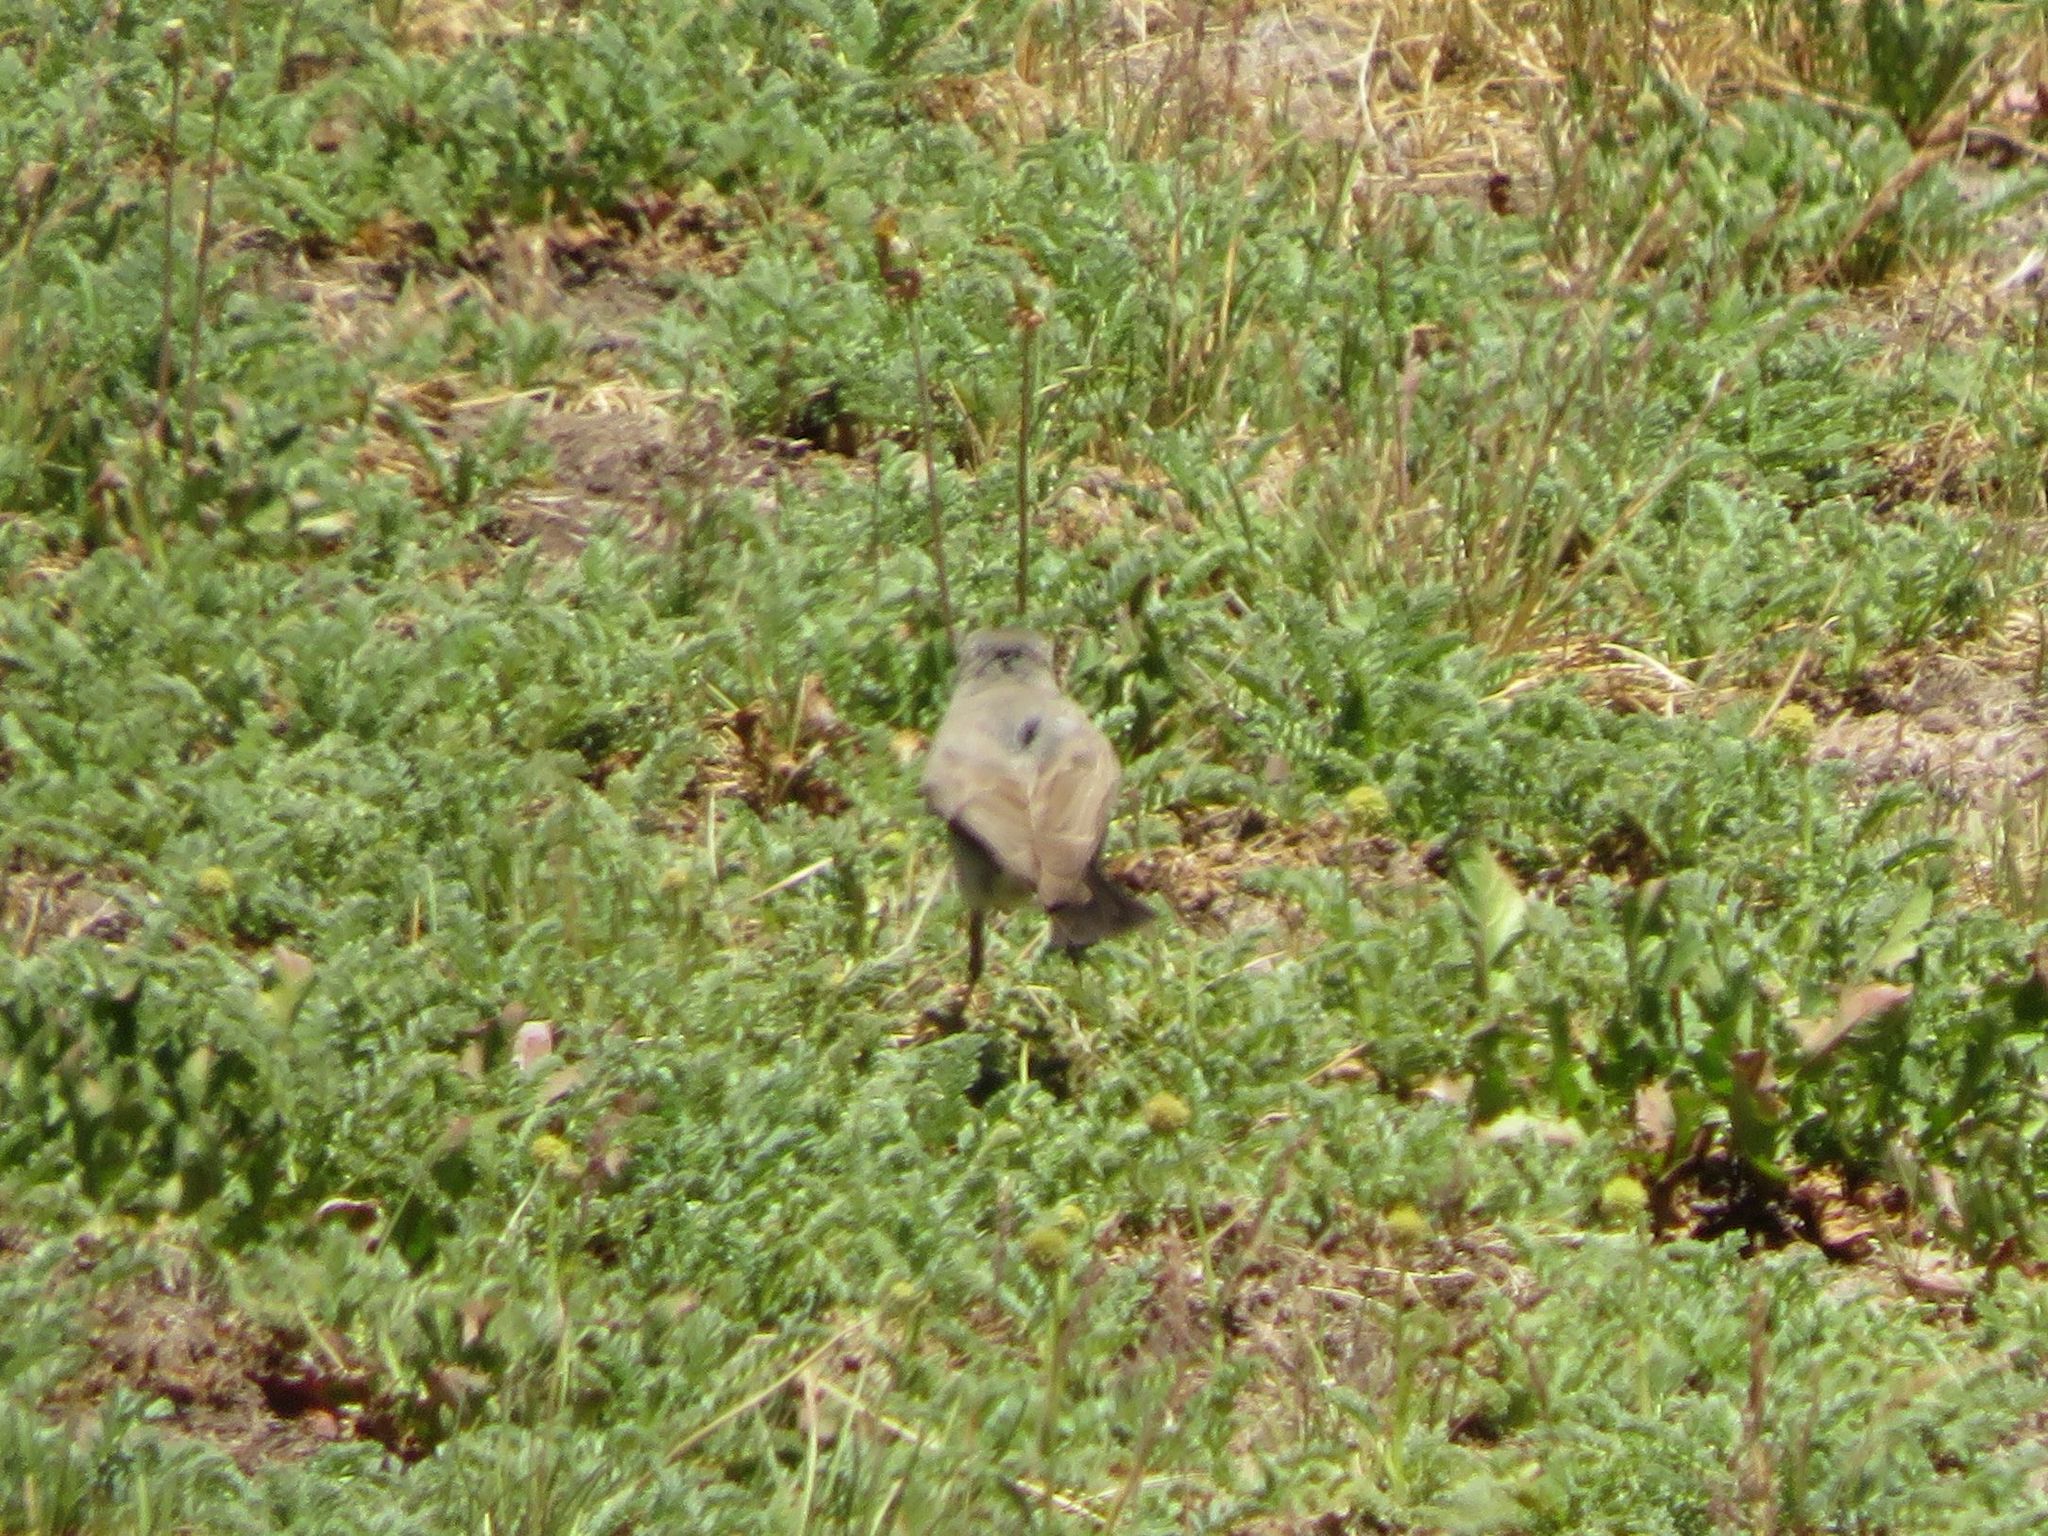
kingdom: Animalia
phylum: Chordata
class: Aves
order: Passeriformes
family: Tyrannidae
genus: Muscisaxicola
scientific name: Muscisaxicola frontalis
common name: Black-fronted ground tyrant
